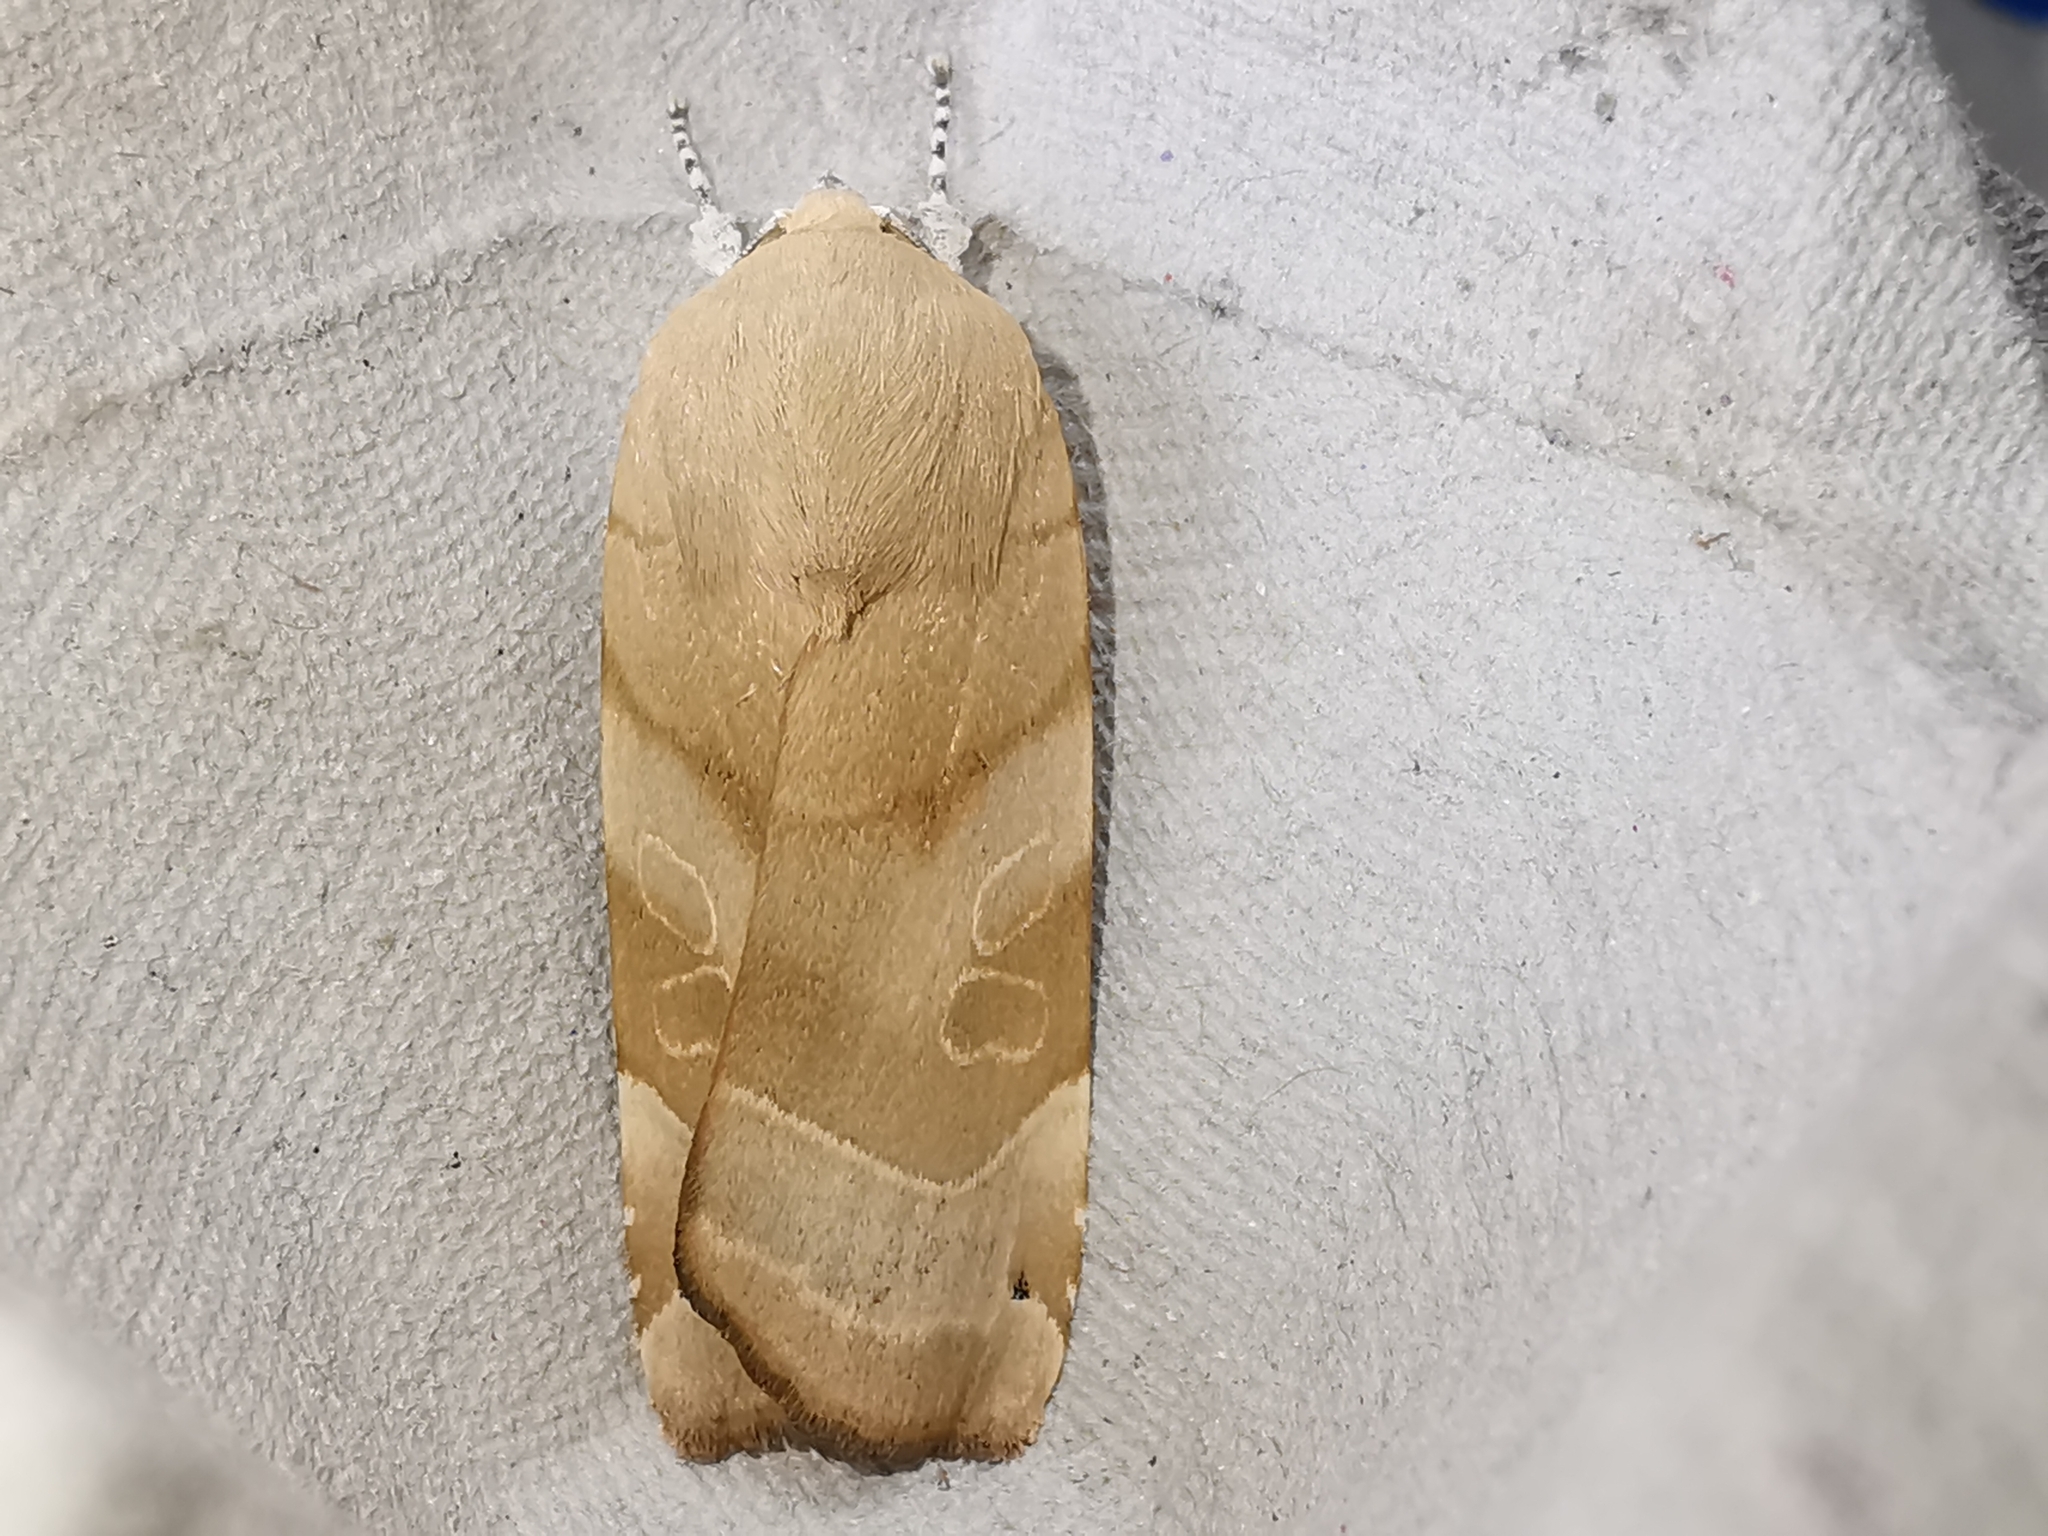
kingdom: Animalia
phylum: Arthropoda
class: Insecta
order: Lepidoptera
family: Noctuidae
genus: Noctua
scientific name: Noctua fimbriata
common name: Broad-bordered yellow underwing
